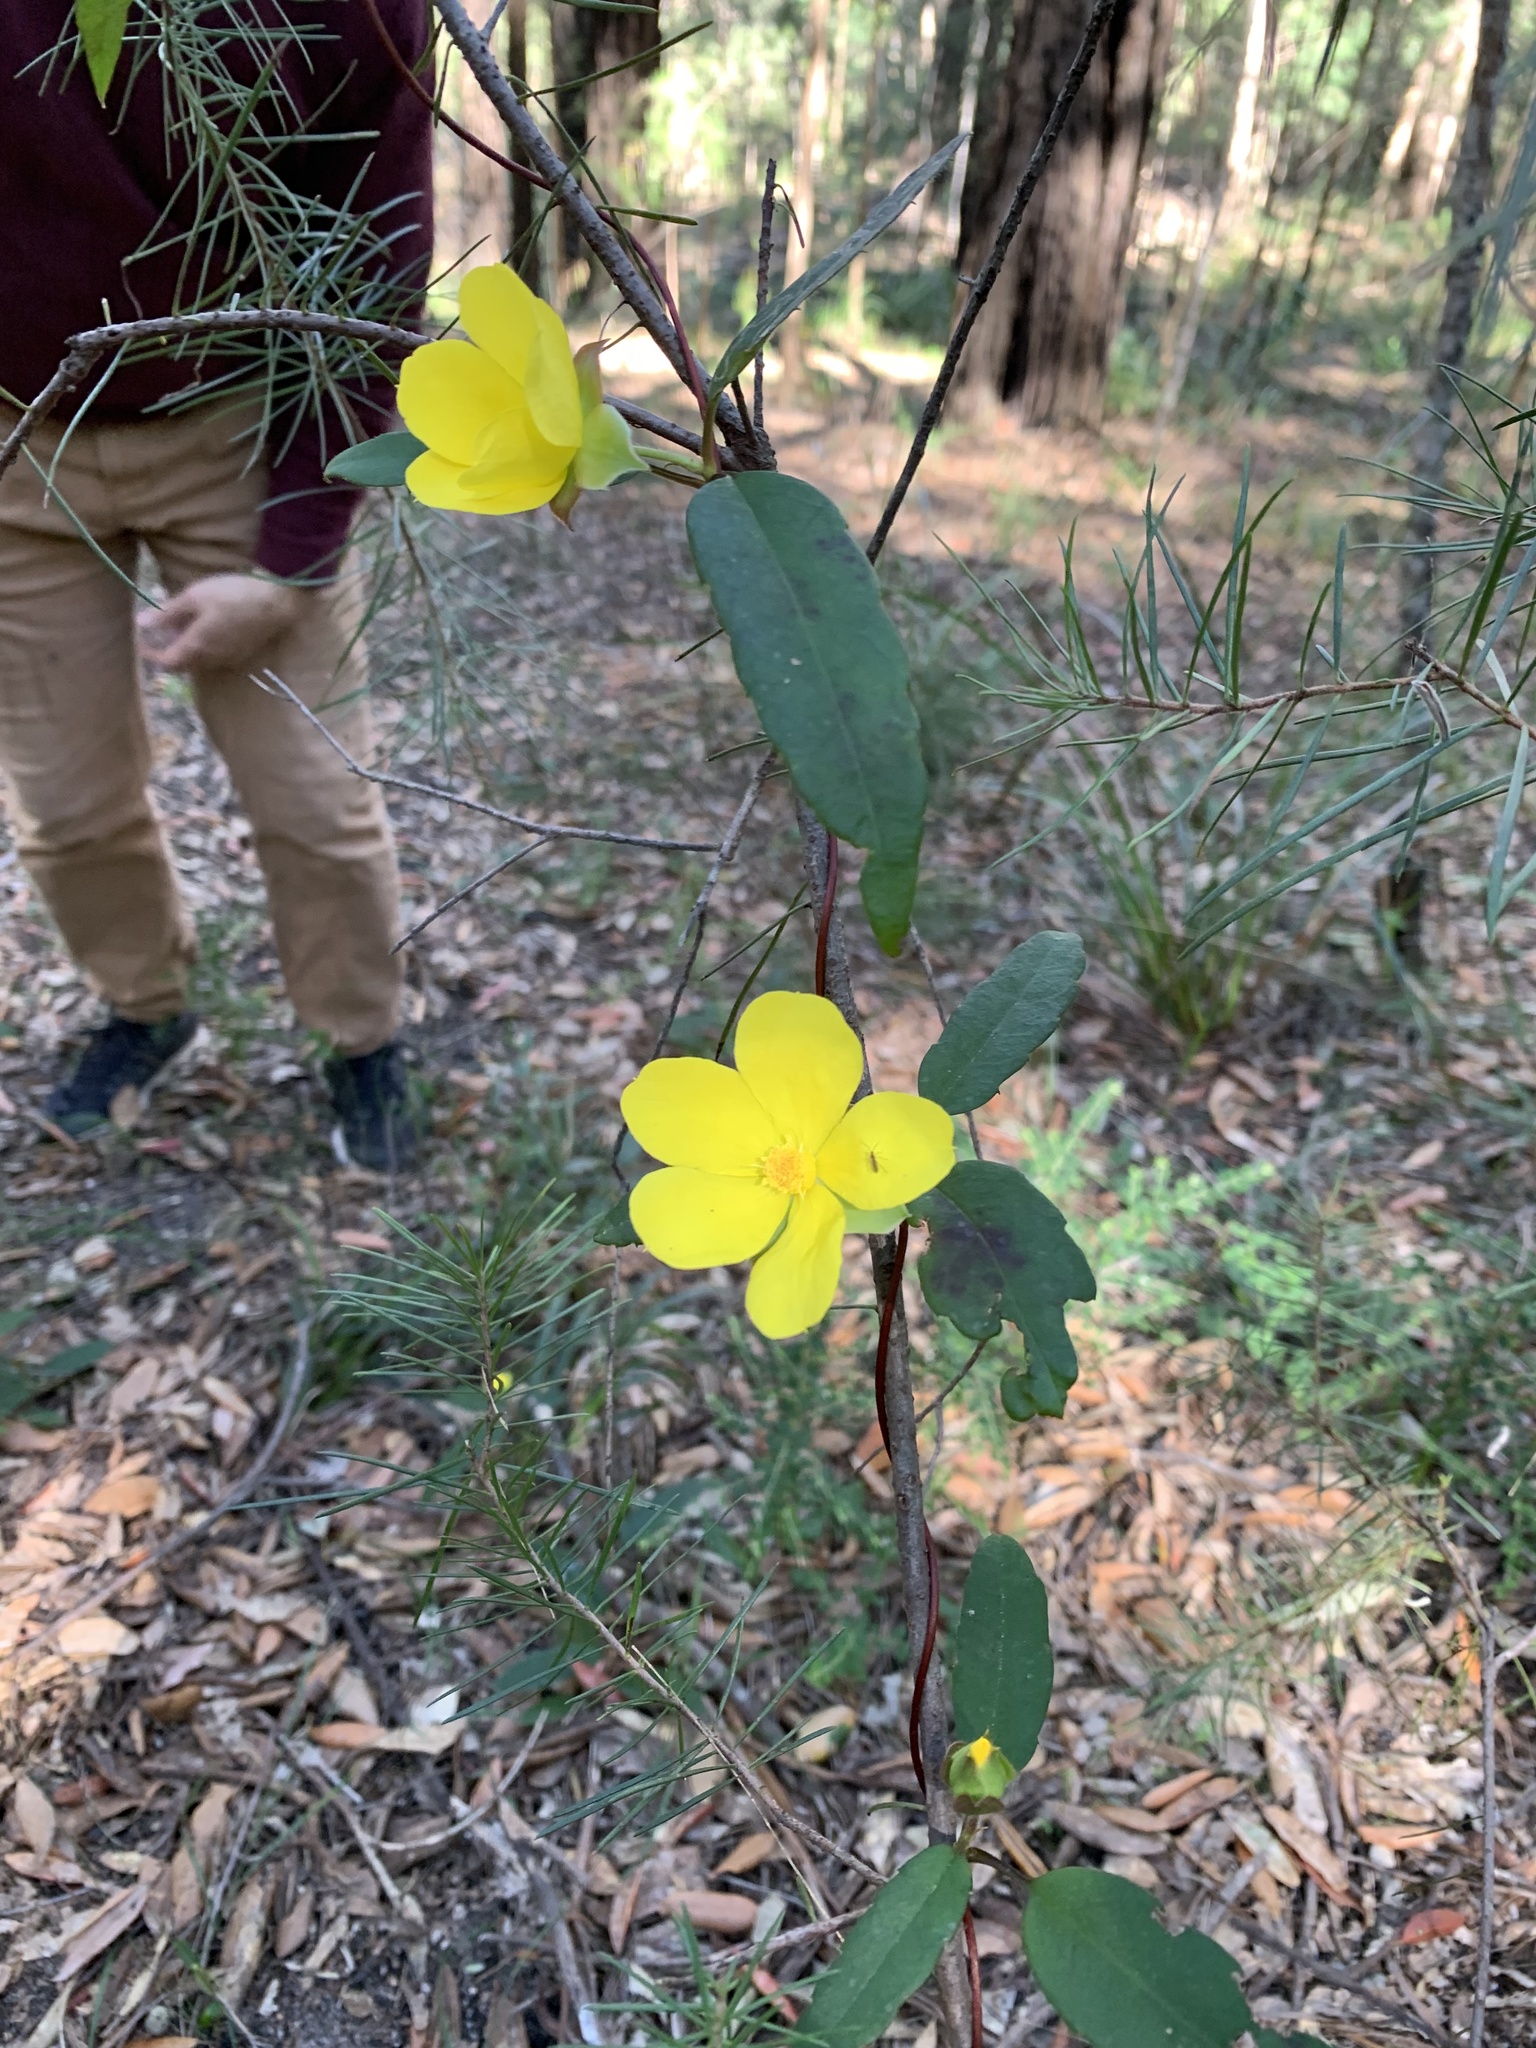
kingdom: Plantae
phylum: Tracheophyta
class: Magnoliopsida
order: Dilleniales
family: Dilleniaceae
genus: Hibbertia
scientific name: Hibbertia dentata
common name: Trailing guinea-flower
